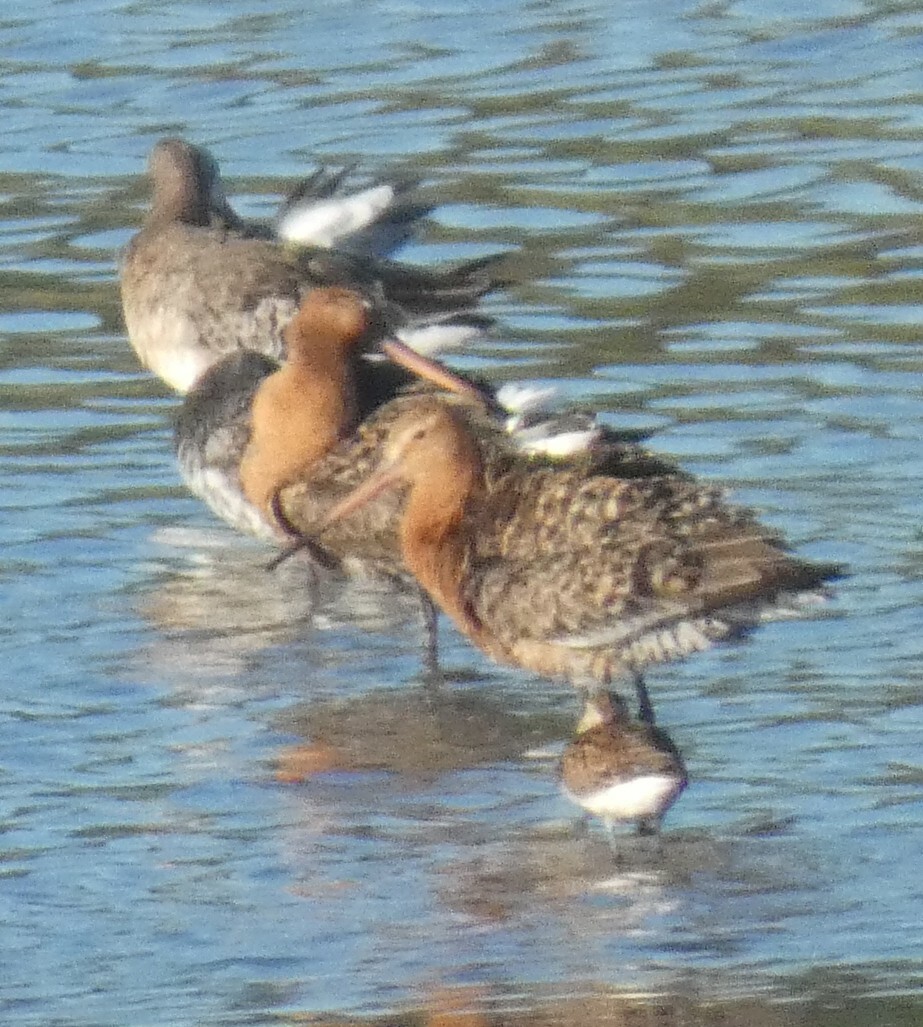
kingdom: Animalia
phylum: Chordata
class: Aves
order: Charadriiformes
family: Scolopacidae
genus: Limosa
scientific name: Limosa limosa
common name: Black-tailed godwit
